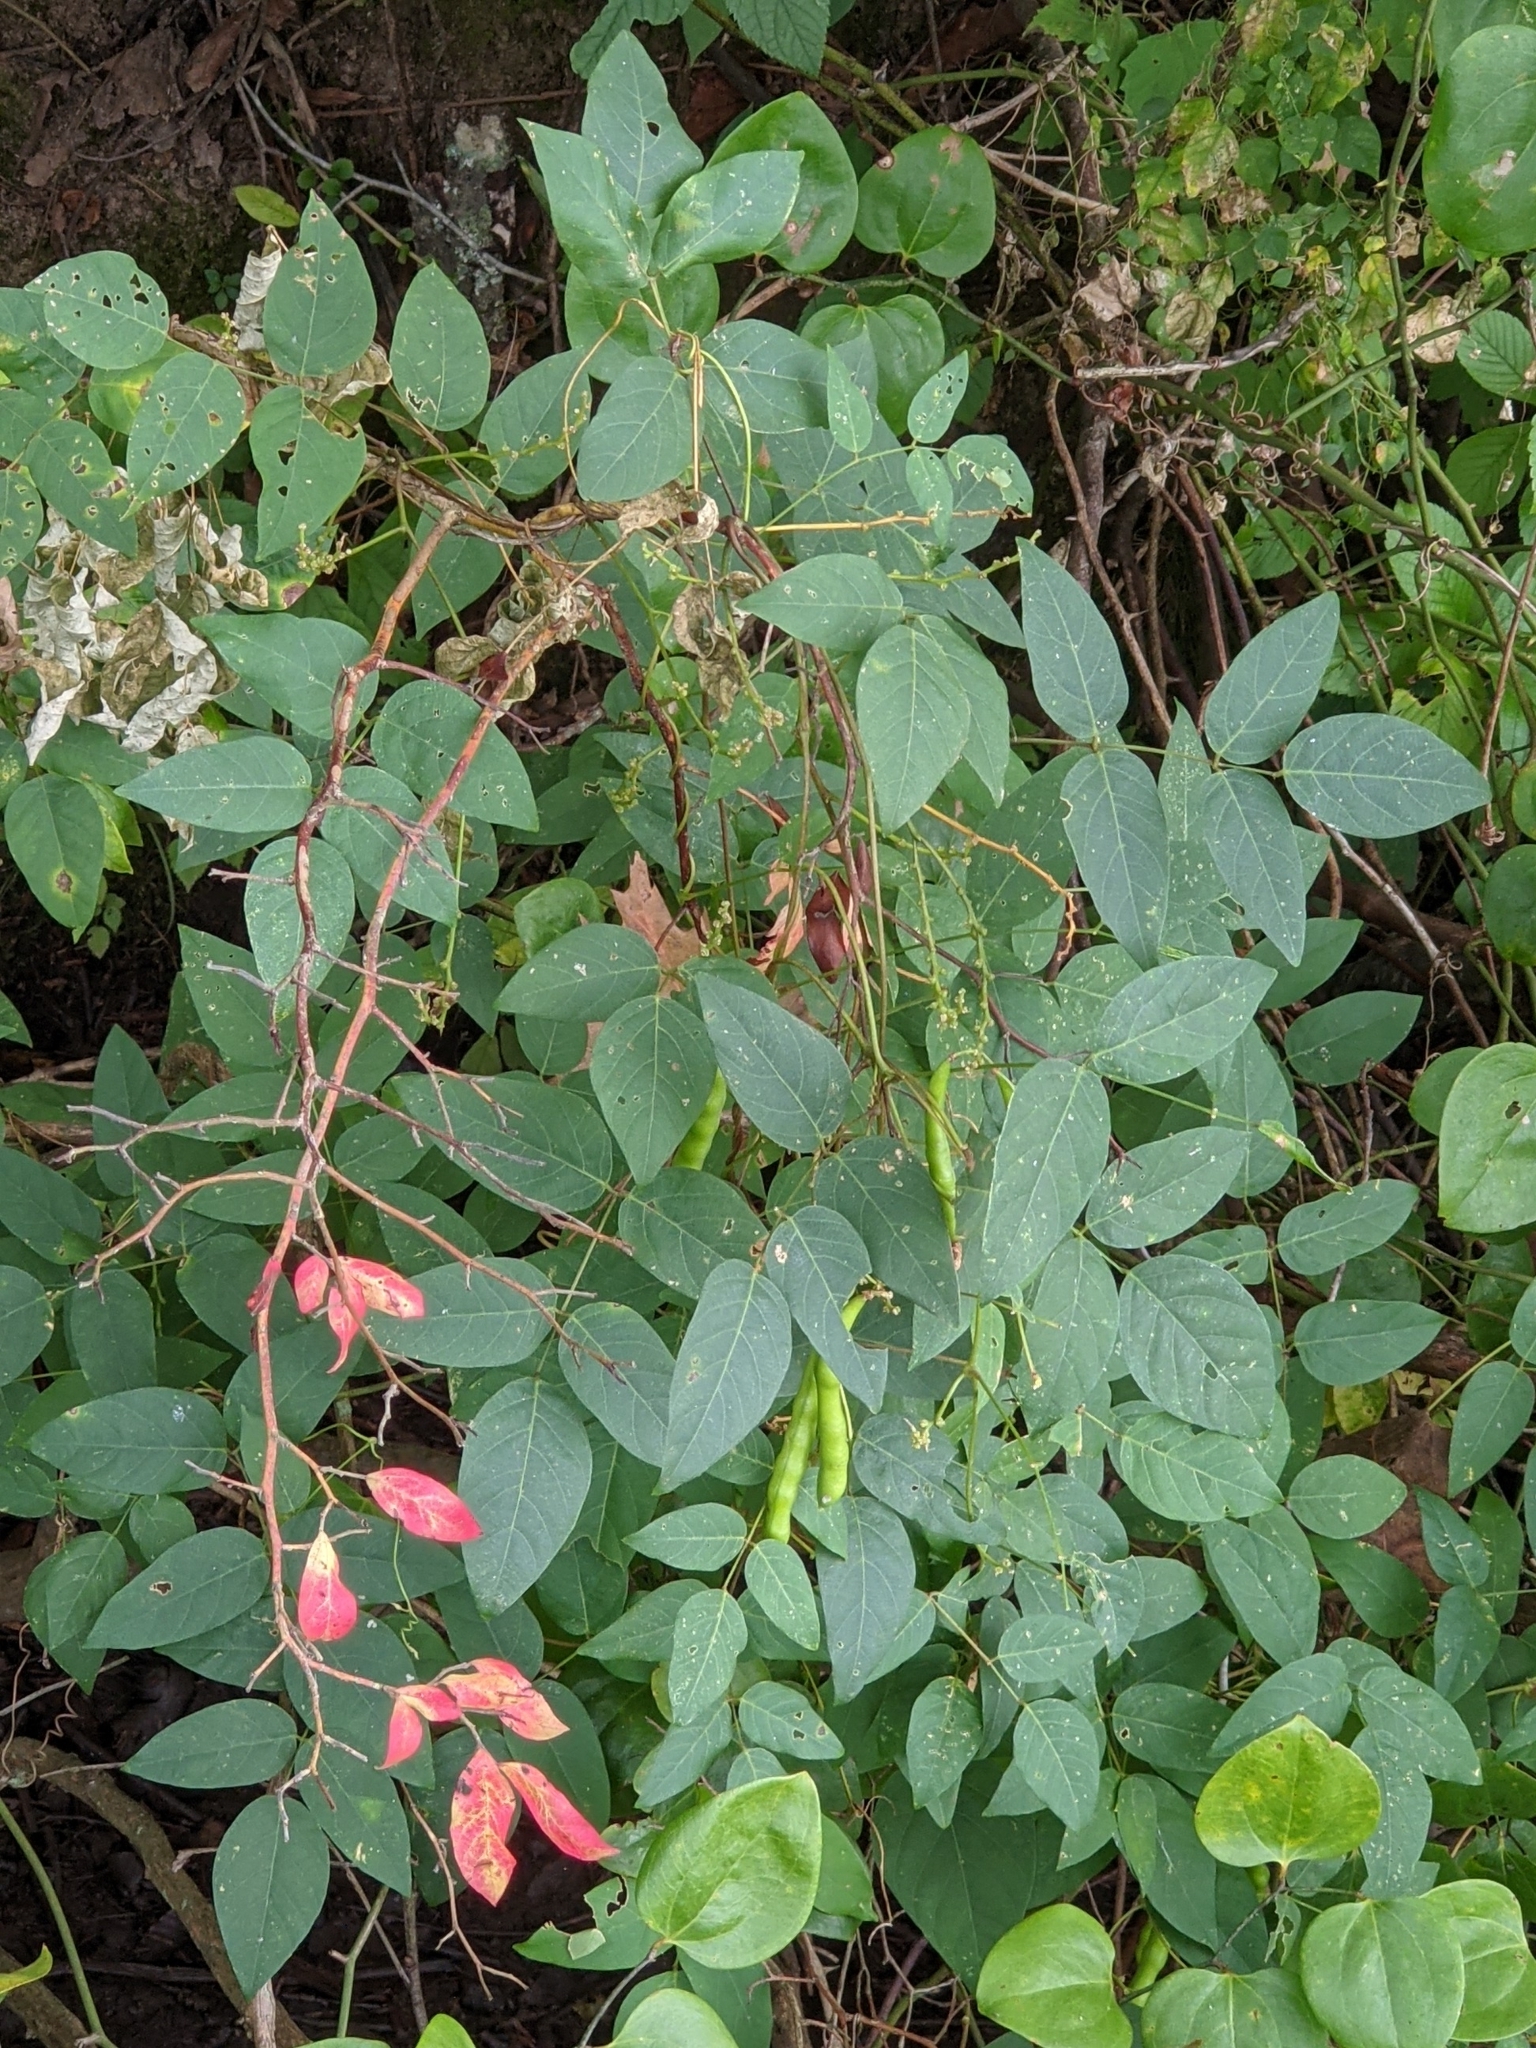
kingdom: Plantae
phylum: Tracheophyta
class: Magnoliopsida
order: Fabales
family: Fabaceae
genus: Apios
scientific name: Apios americana
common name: American potato-bean
